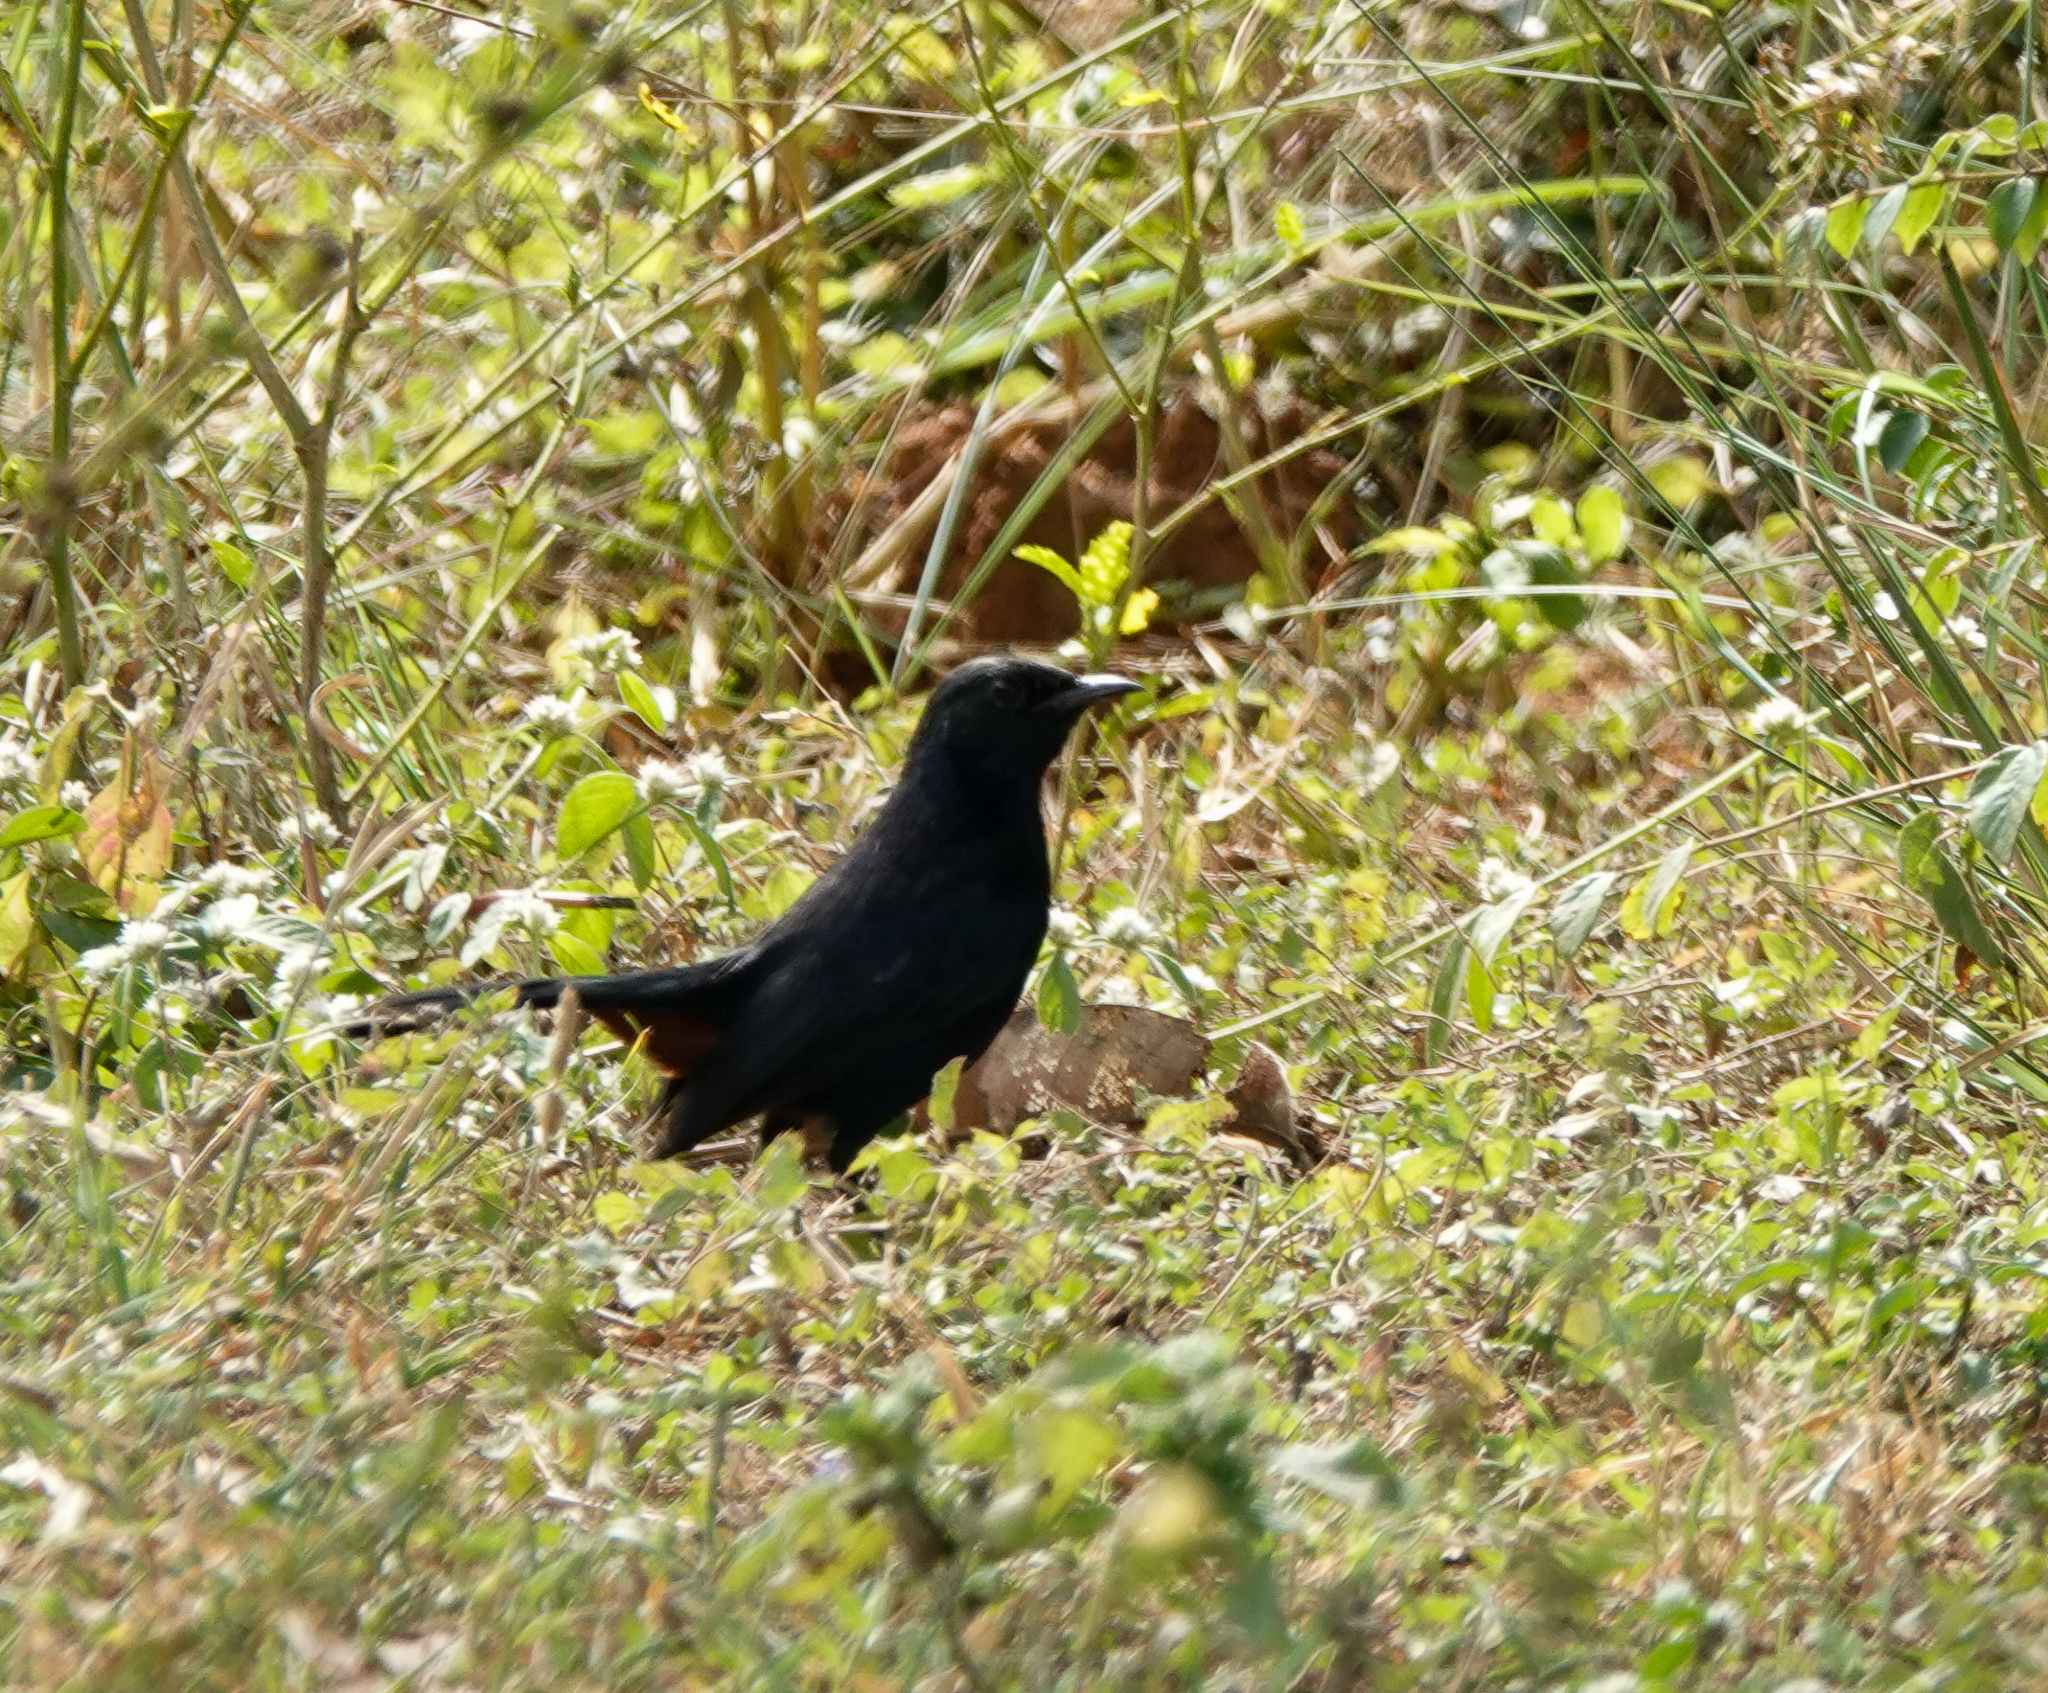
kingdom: Animalia
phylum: Chordata
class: Aves
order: Passeriformes
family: Muscicapidae
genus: Saxicoloides
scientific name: Saxicoloides fulicatus
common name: Indian robin
